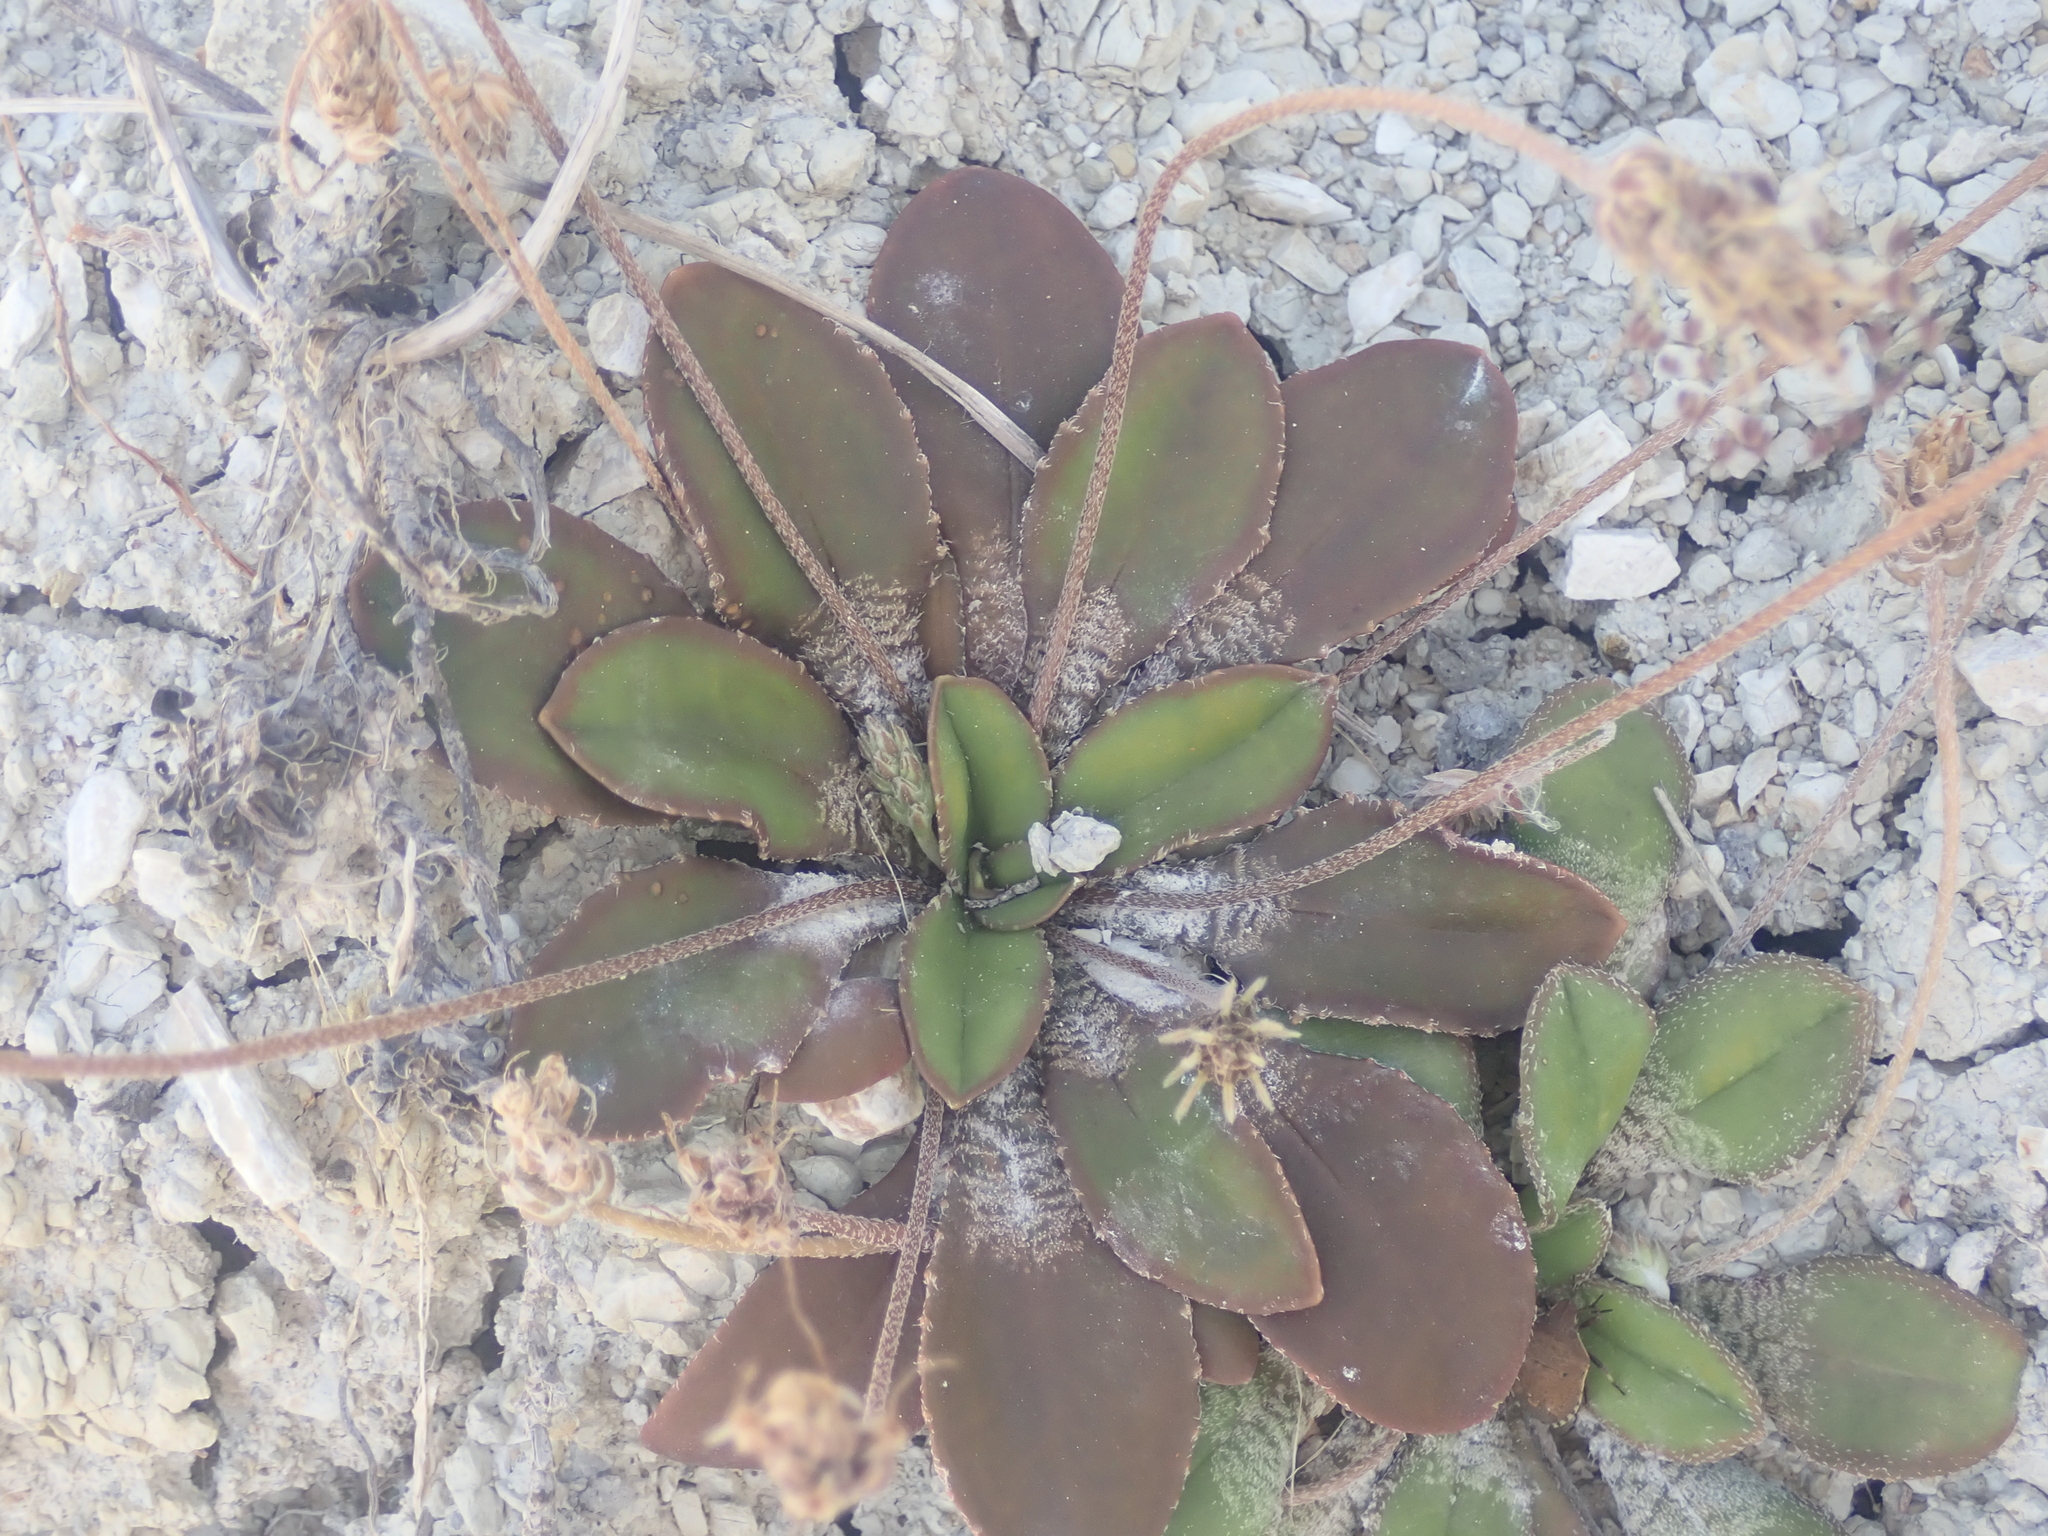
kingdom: Plantae
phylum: Tracheophyta
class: Magnoliopsida
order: Lamiales
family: Plantaginaceae
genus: Plantago
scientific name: Plantago spathulata
